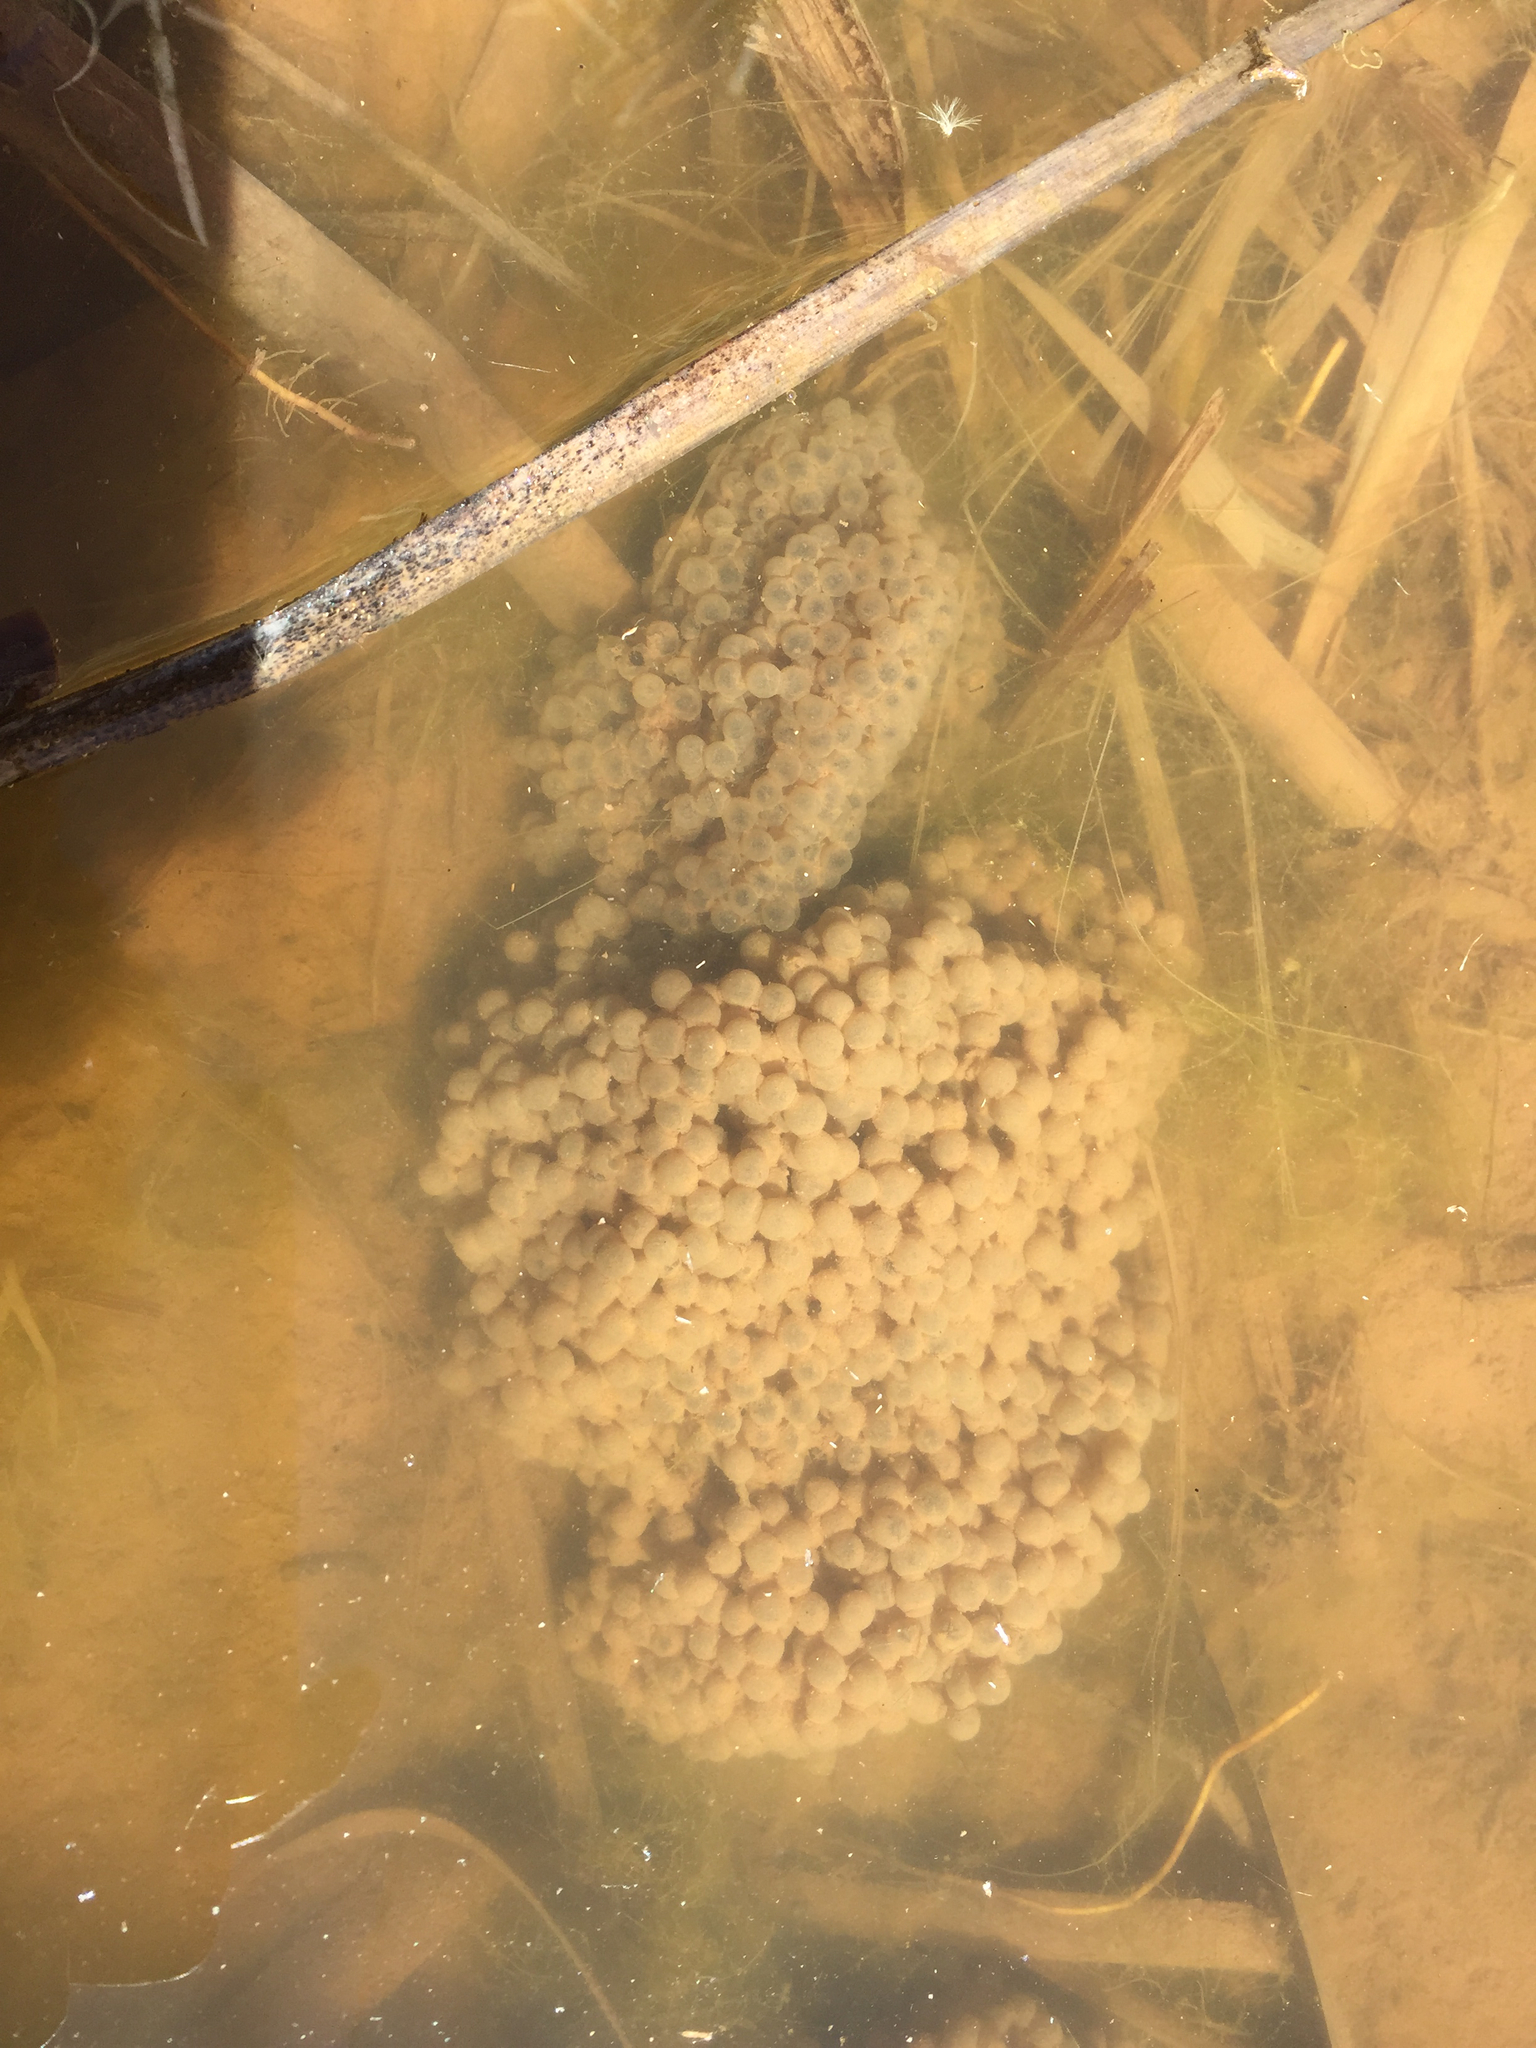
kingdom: Animalia
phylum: Chordata
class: Amphibia
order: Anura
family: Ranidae
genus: Lithobates
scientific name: Lithobates pipiens
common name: Northern leopard frog
